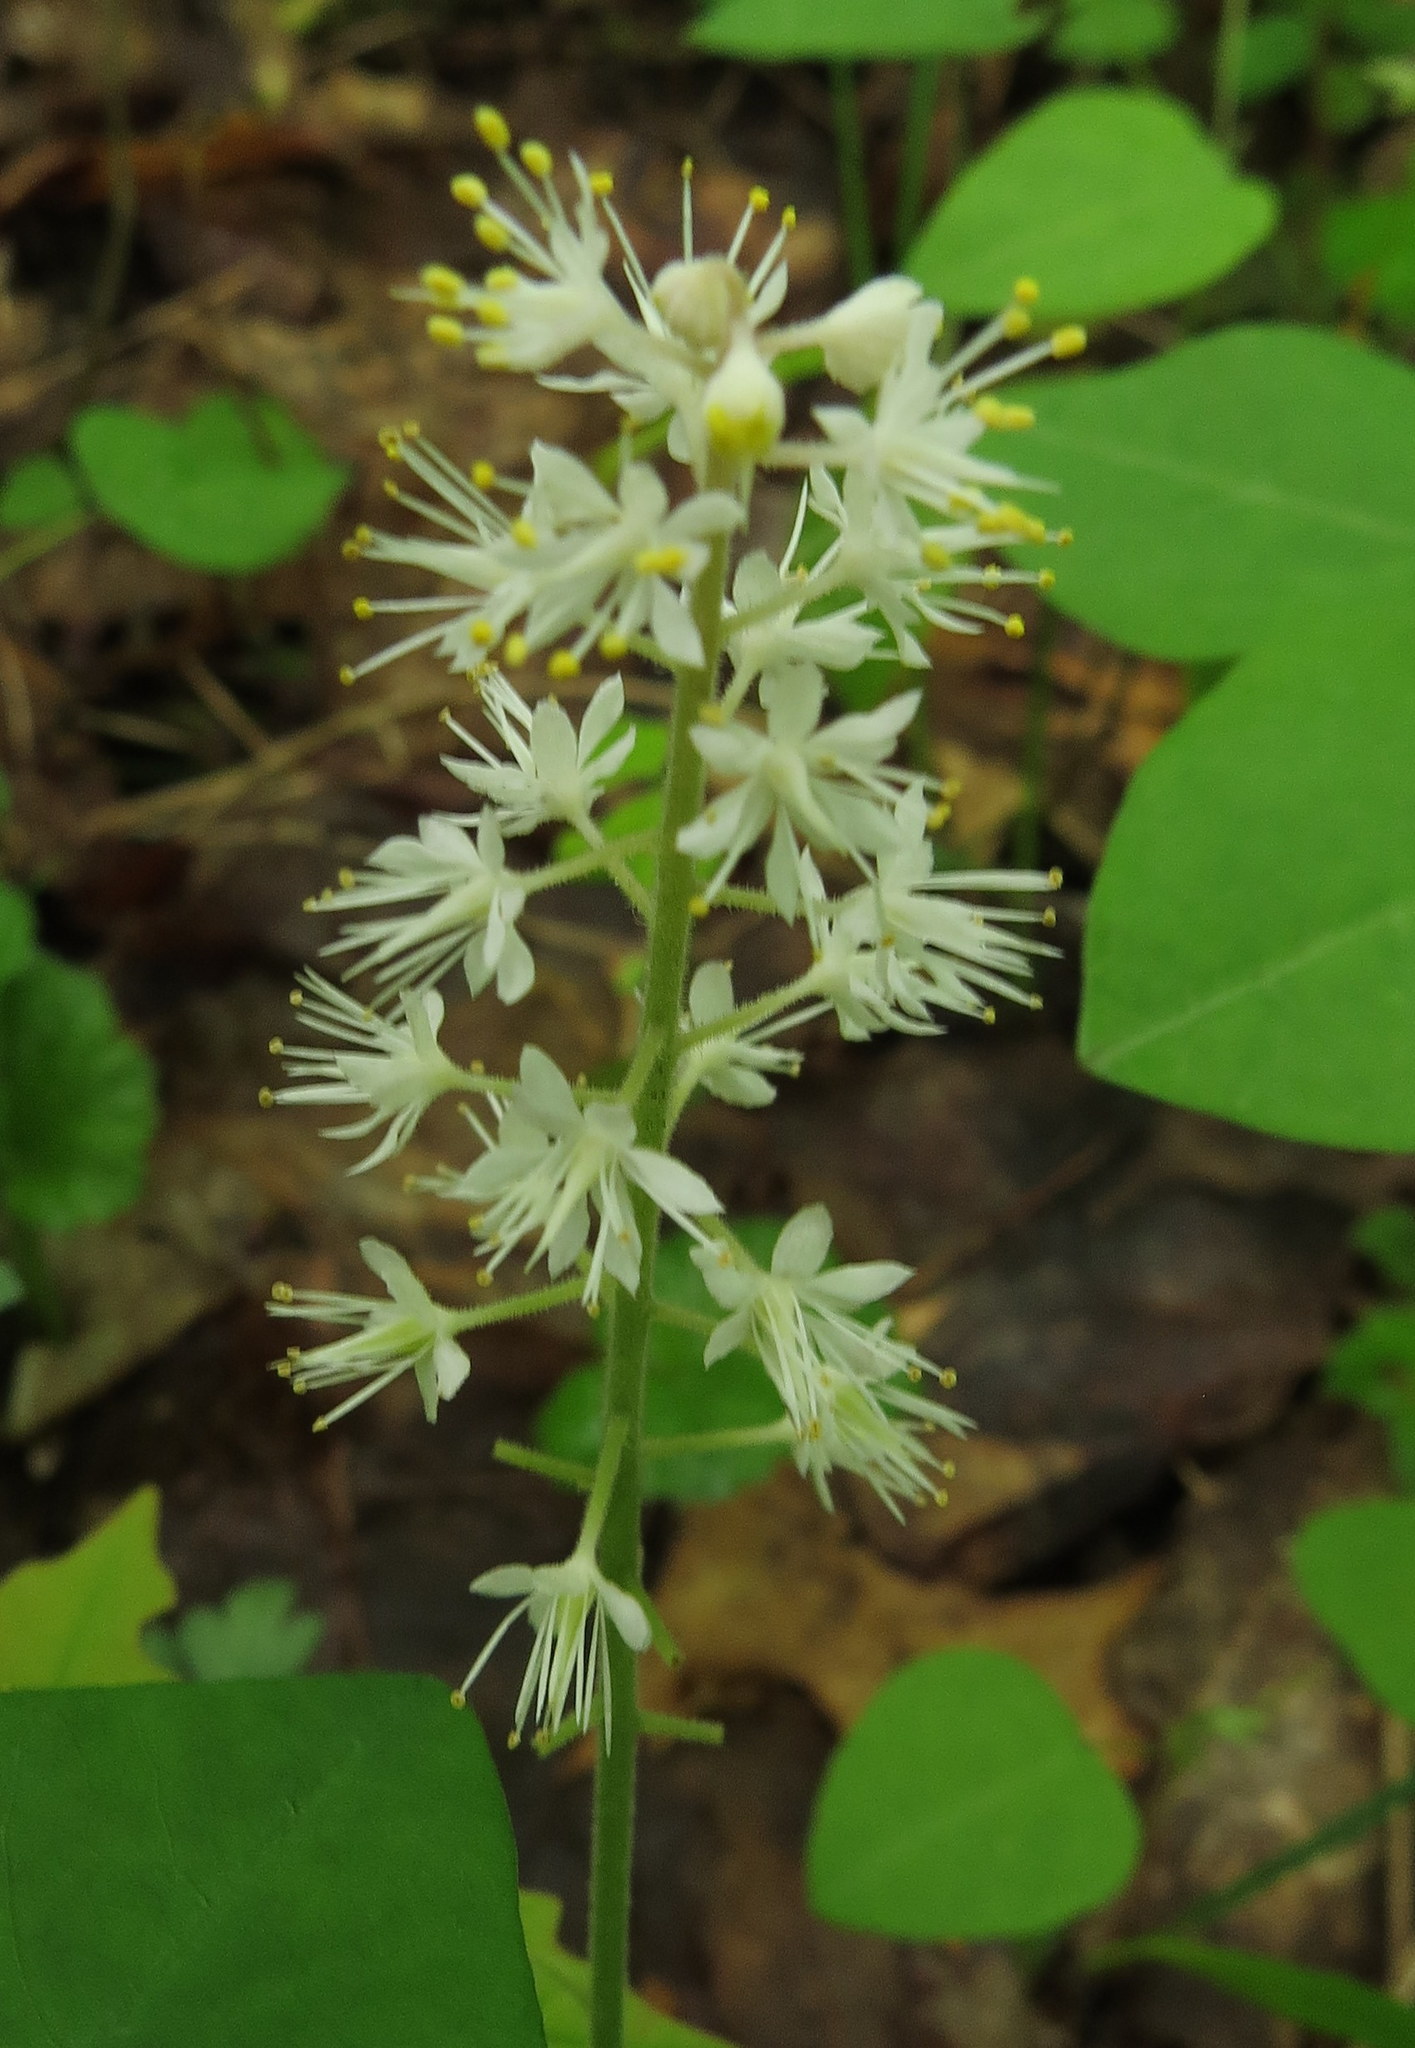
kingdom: Plantae
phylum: Tracheophyta
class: Magnoliopsida
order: Saxifragales
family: Saxifragaceae
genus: Tiarella
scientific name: Tiarella stolonifera
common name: Stoloniferous foamflower
